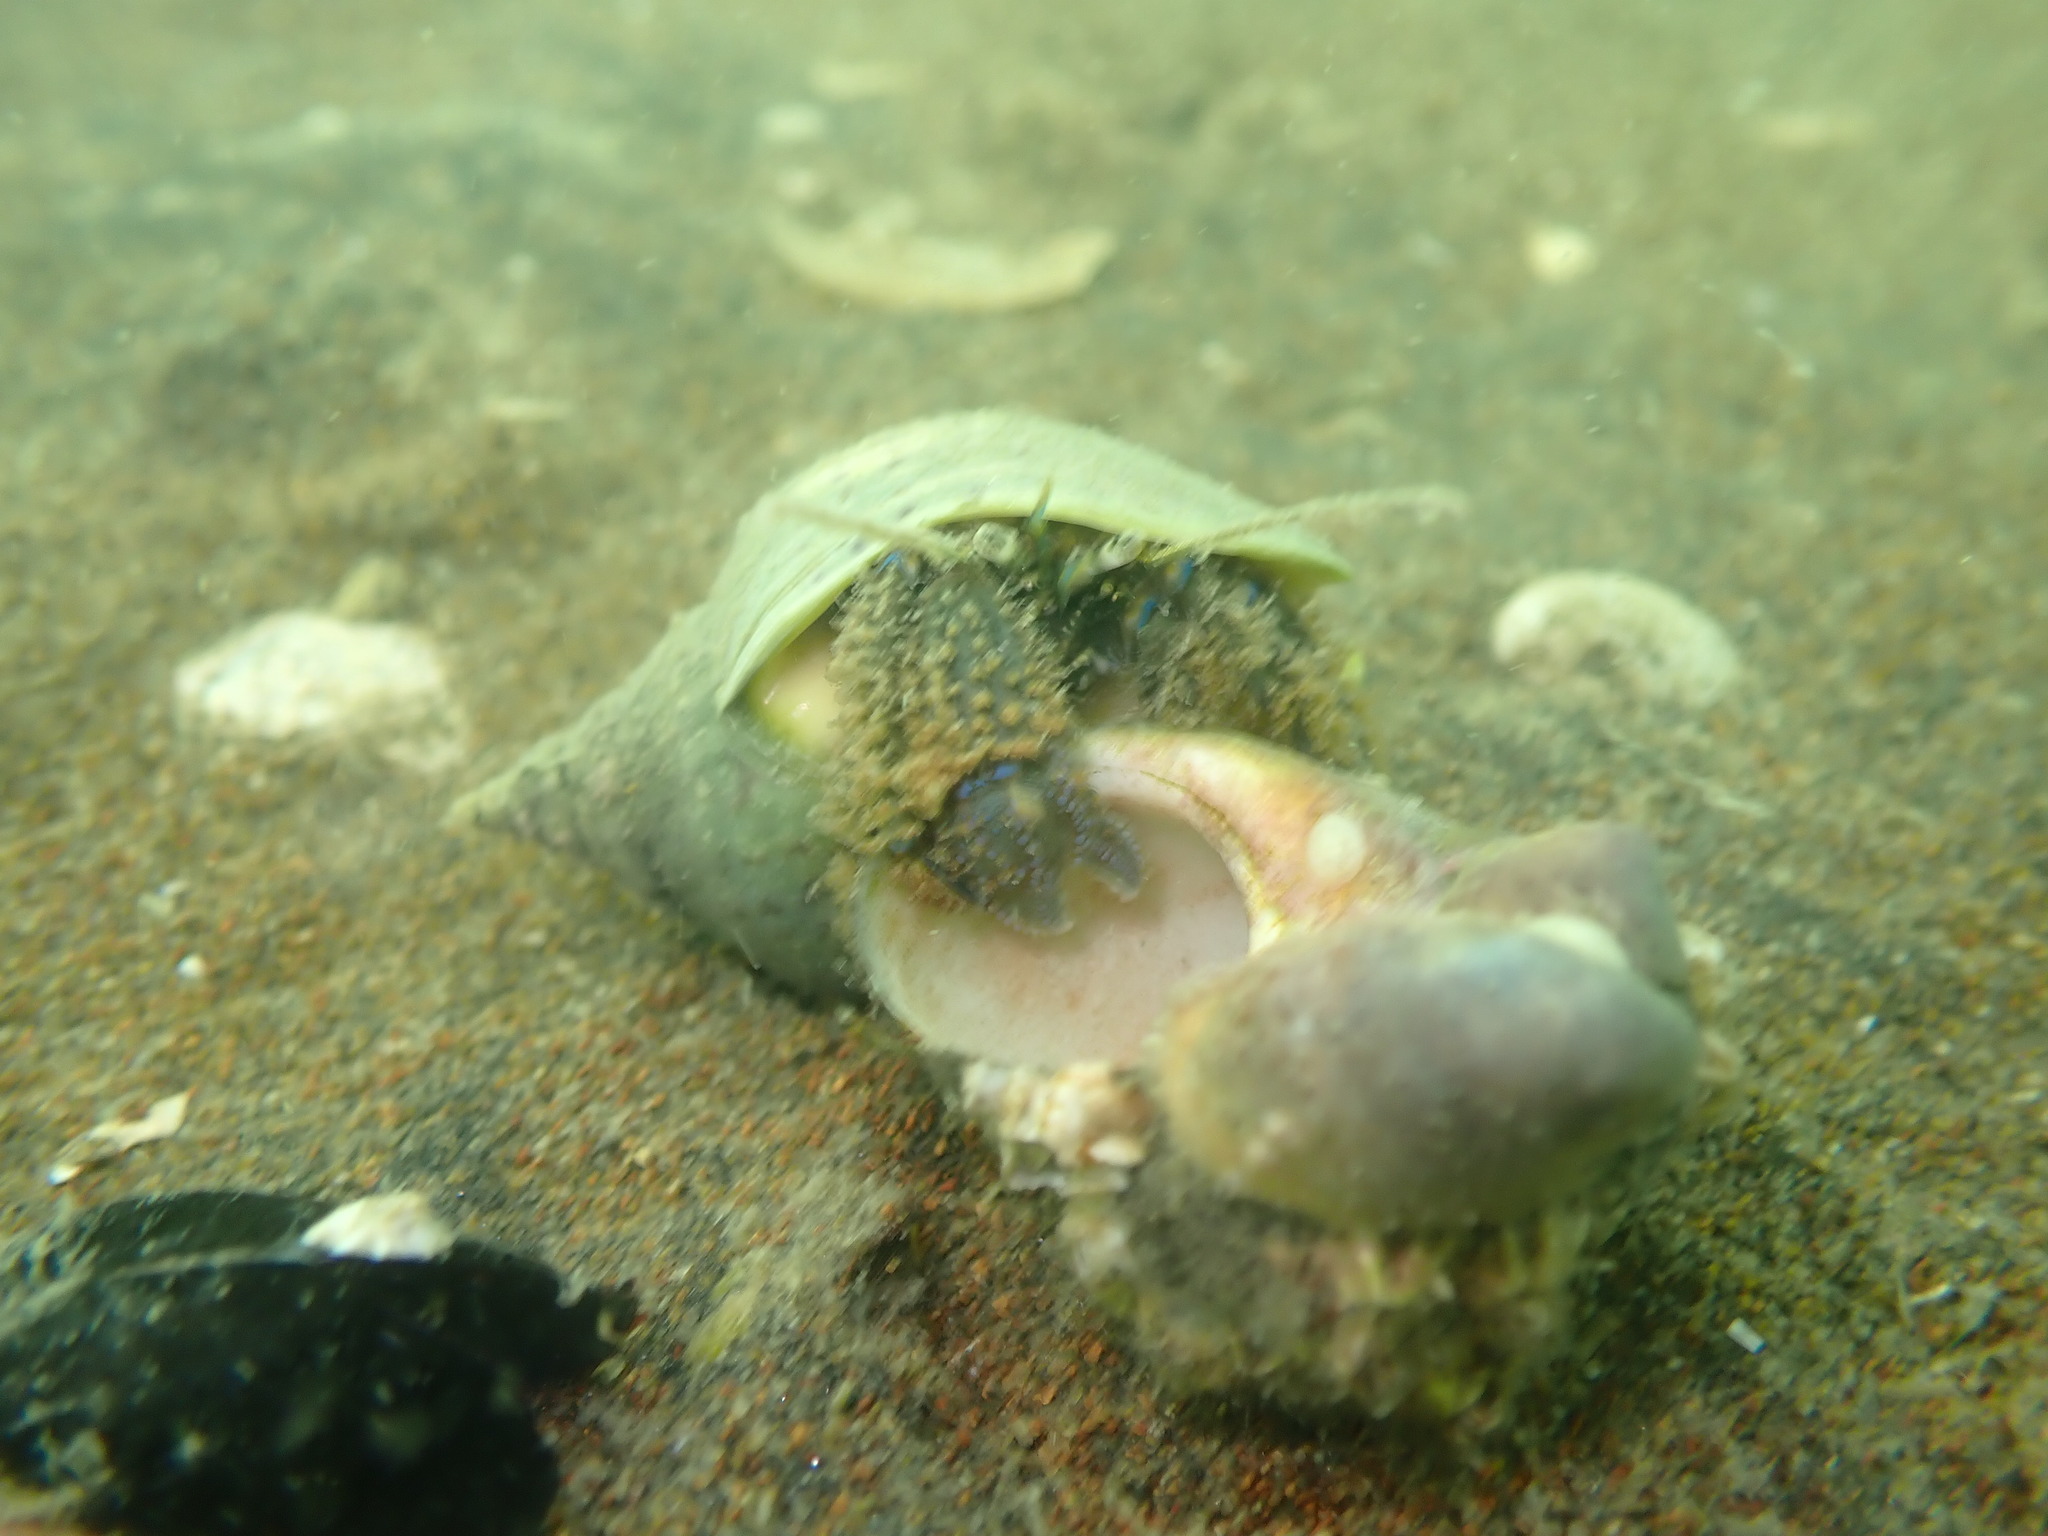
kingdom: Animalia
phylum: Arthropoda
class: Malacostraca
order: Decapoda
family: Paguridae
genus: Pagurus
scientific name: Pagurus novizealandiae
